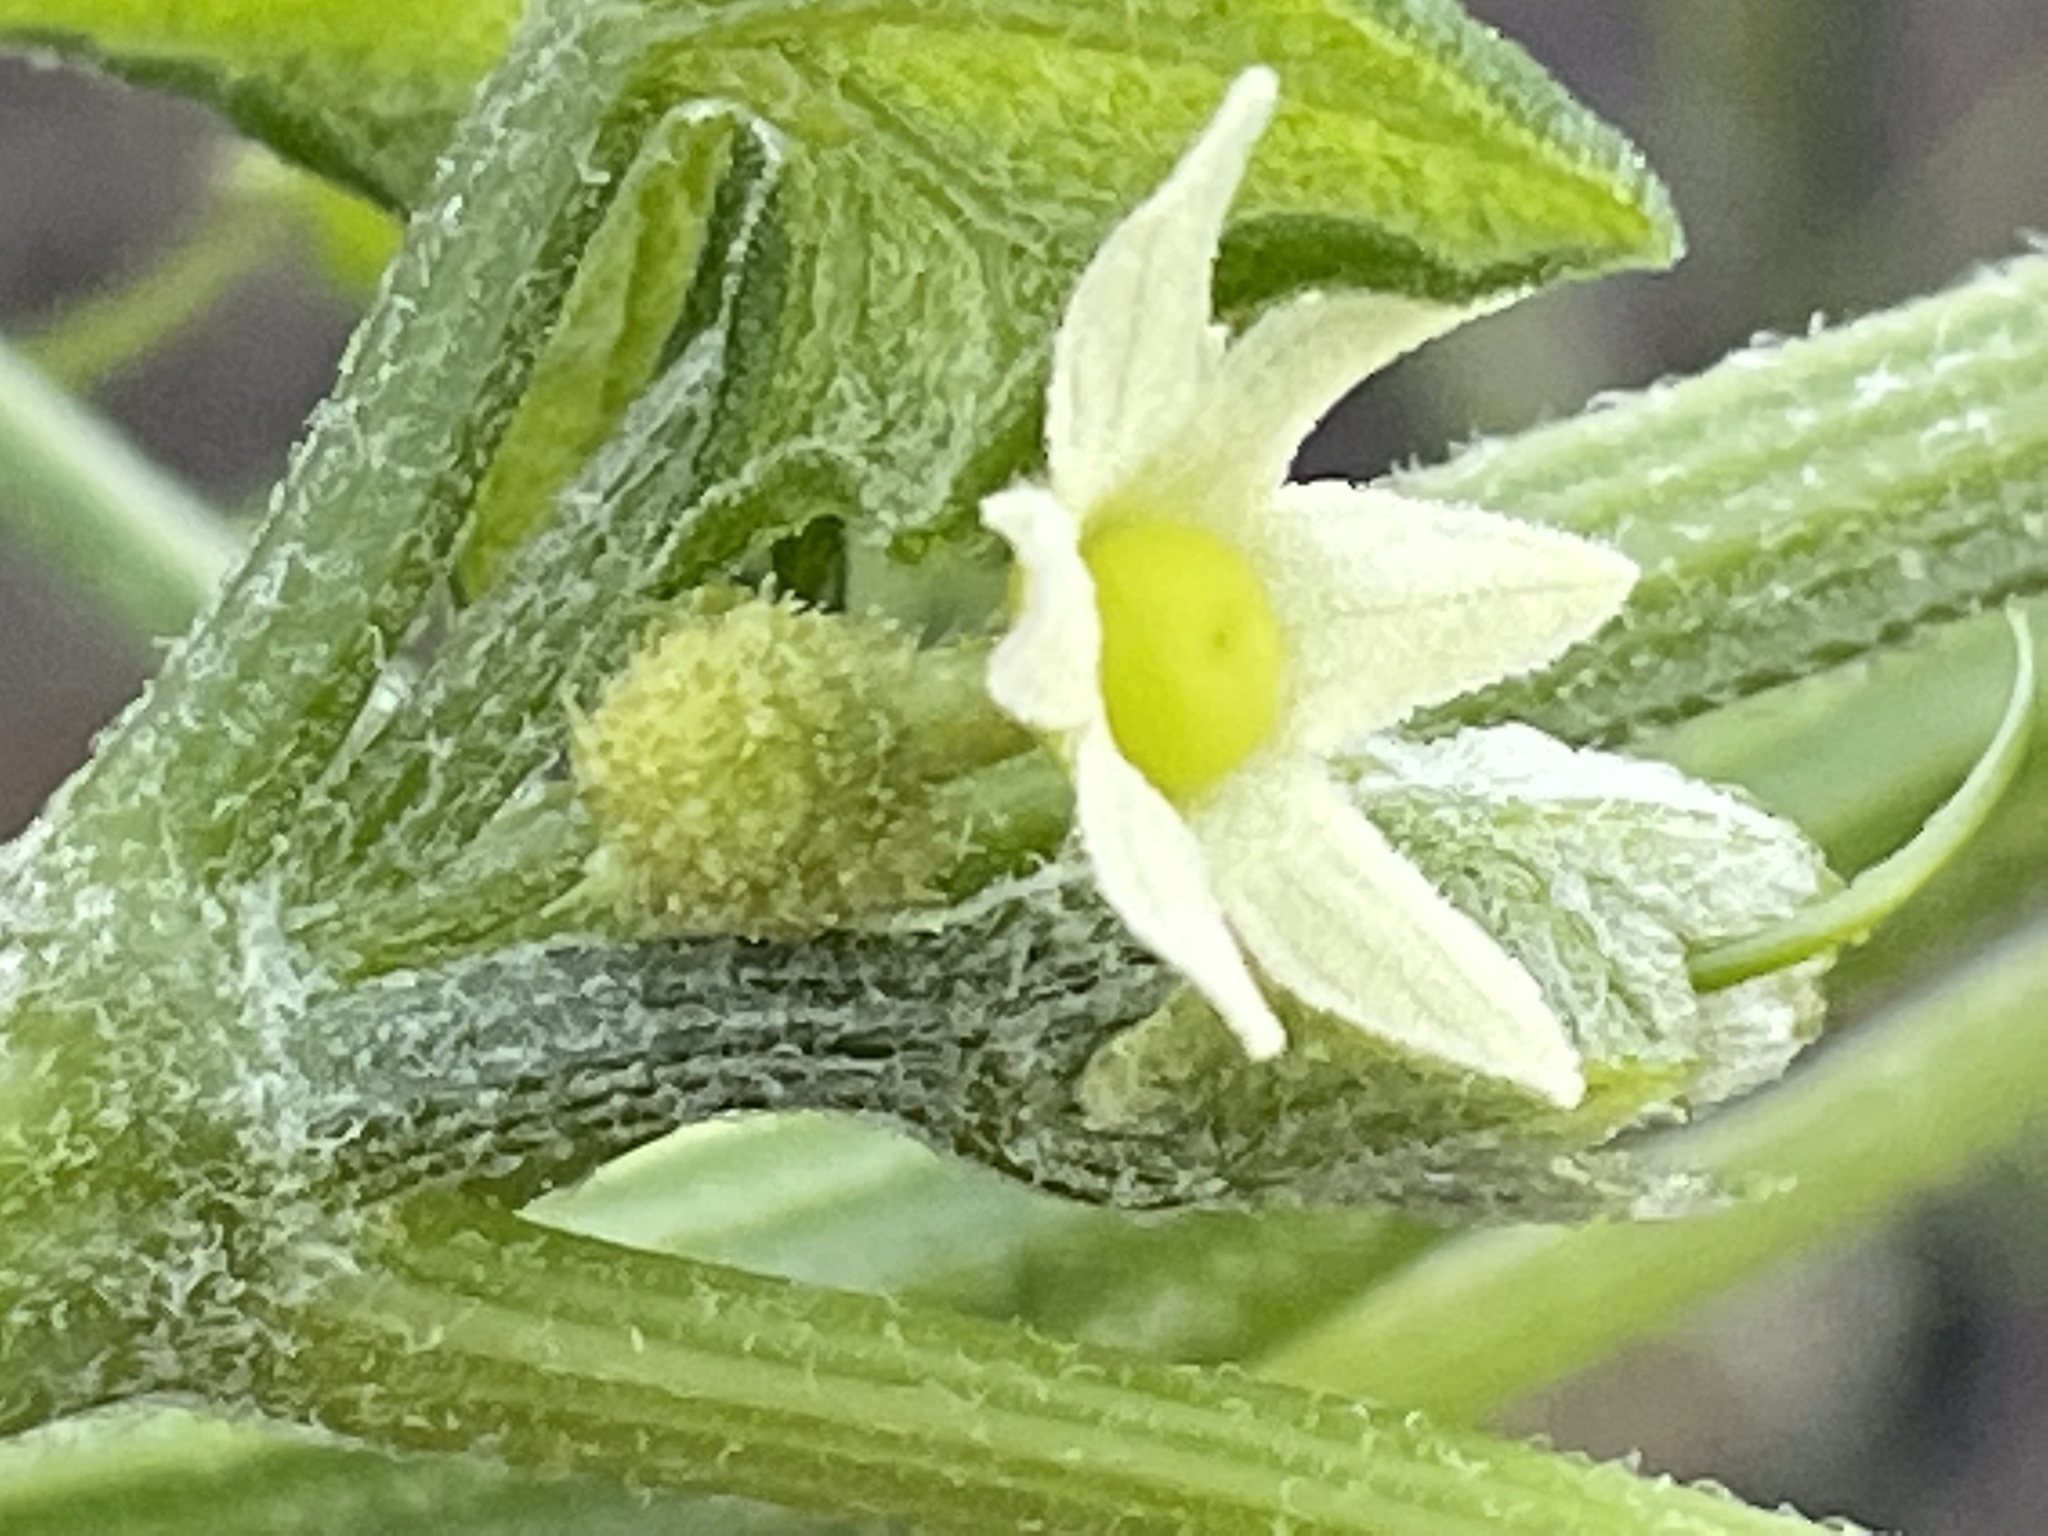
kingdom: Plantae
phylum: Tracheophyta
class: Magnoliopsida
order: Cucurbitales
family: Cucurbitaceae
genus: Marah
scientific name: Marah fabacea
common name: California manroot
